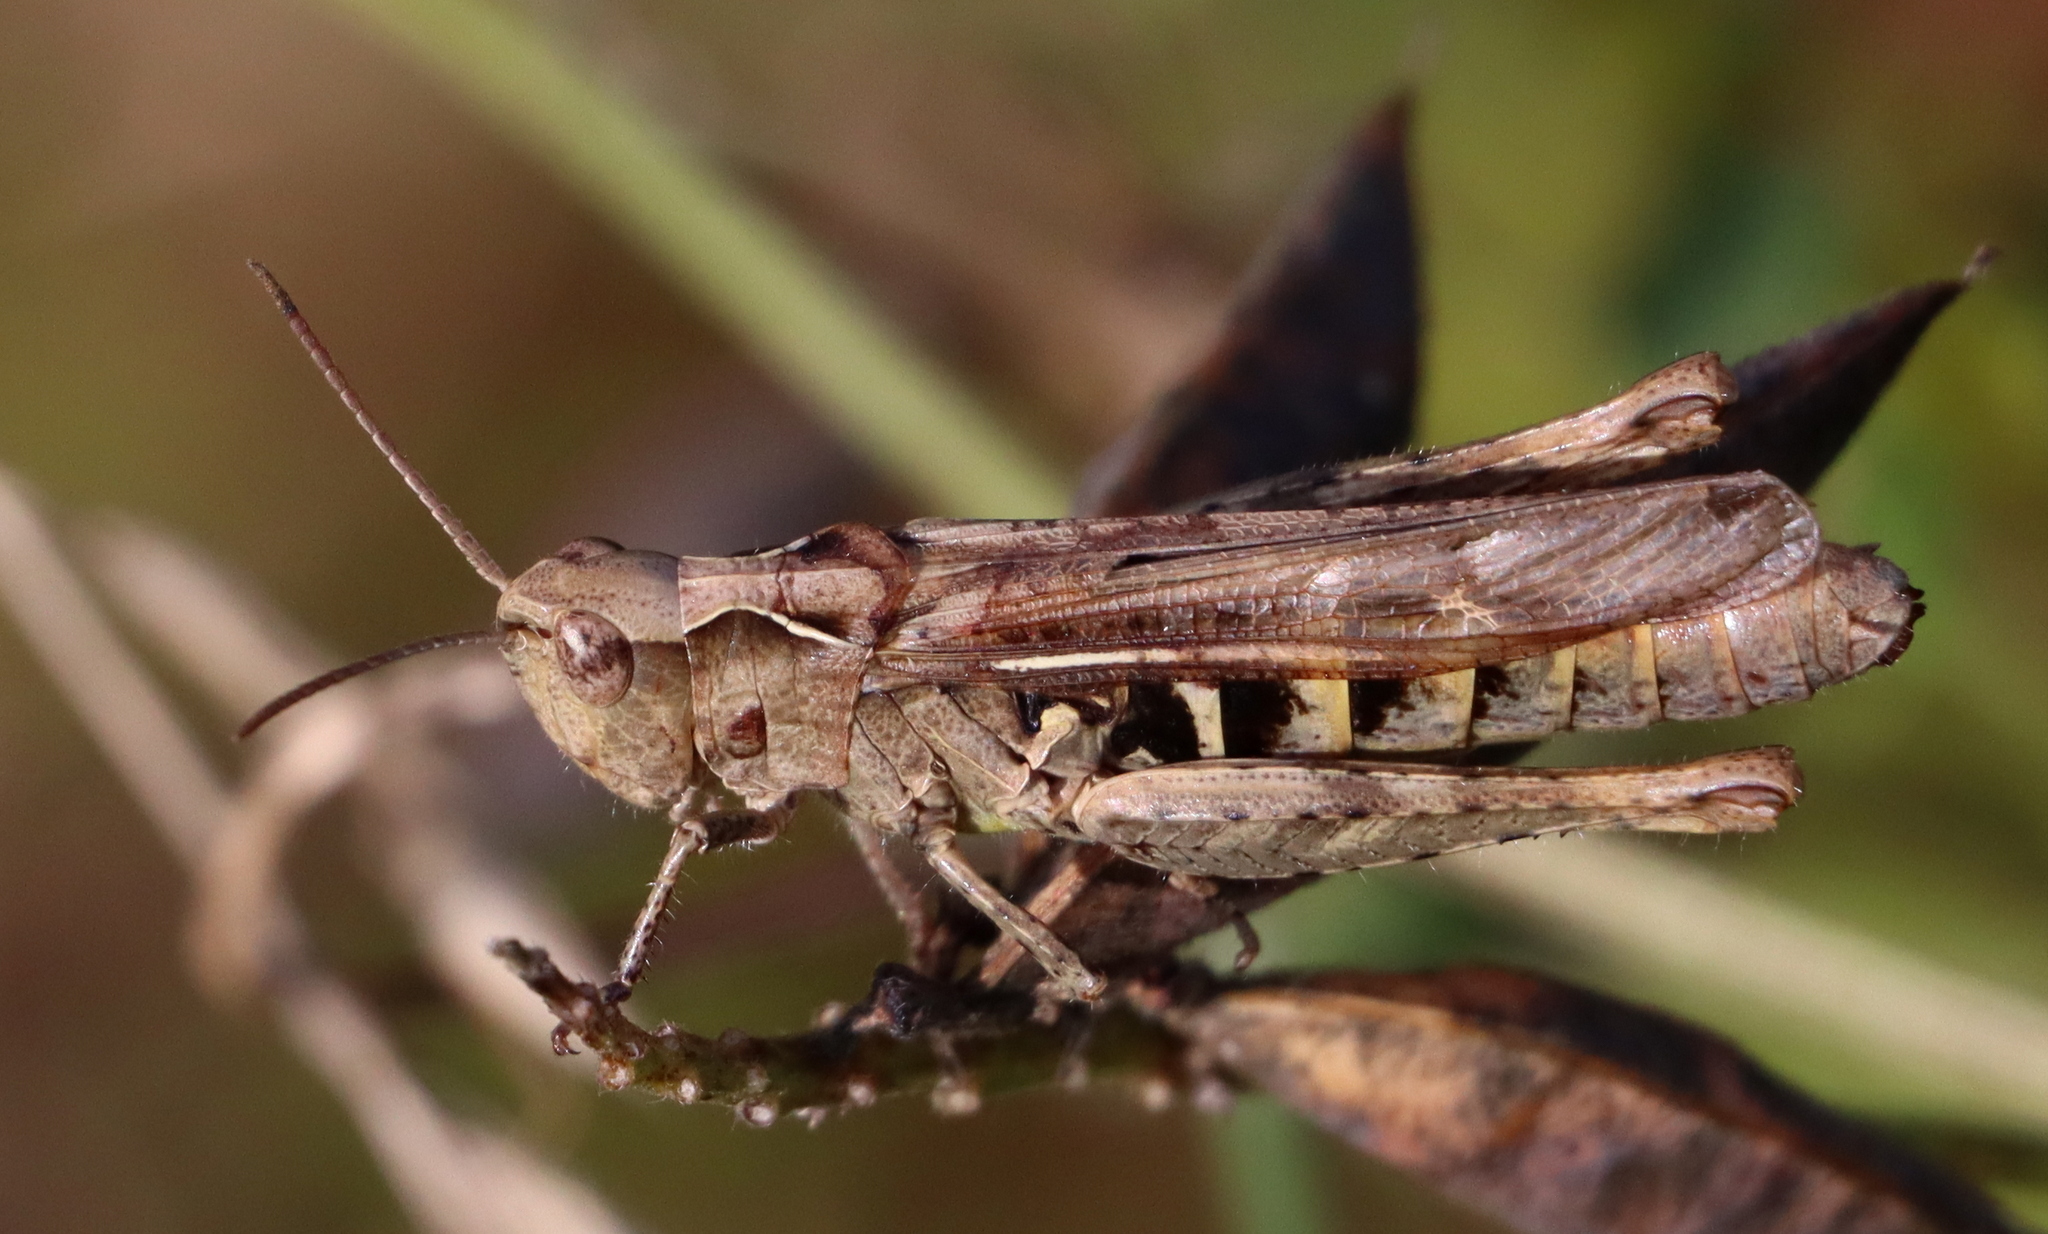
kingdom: Animalia
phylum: Arthropoda
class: Insecta
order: Orthoptera
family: Acrididae
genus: Chorthippus
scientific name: Chorthippus biguttulus
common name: Bow-winged grasshopper
